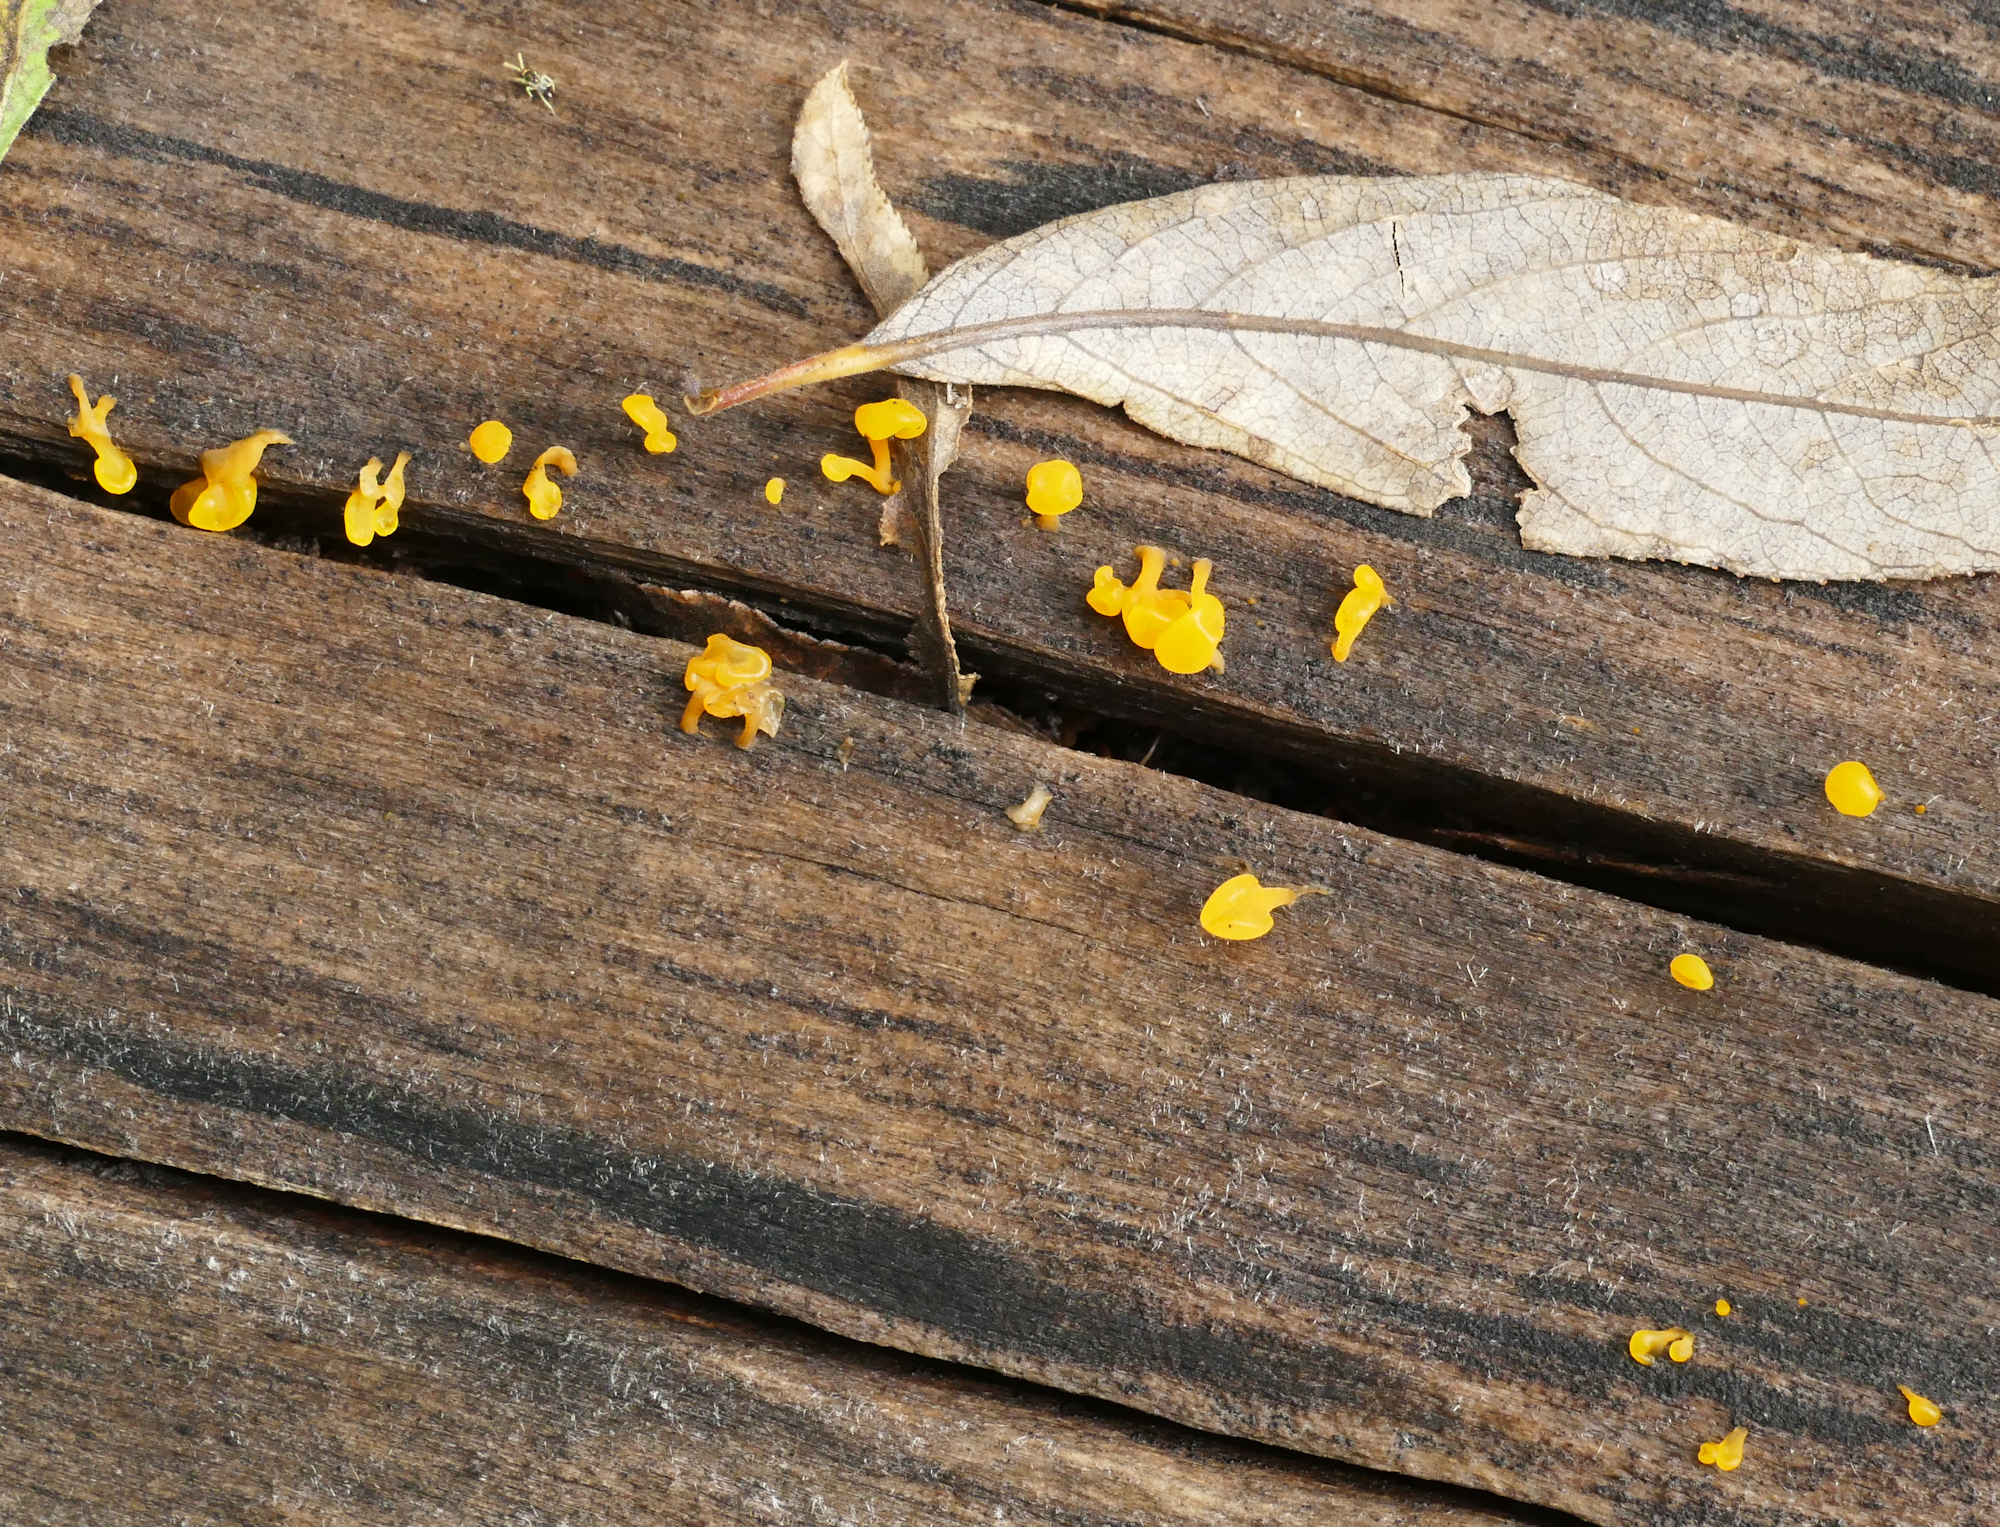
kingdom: Fungi
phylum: Basidiomycota
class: Dacrymycetes
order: Dacrymycetales
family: Dacrymycetaceae
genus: Dacrymyces
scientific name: Dacrymyces spathularius
